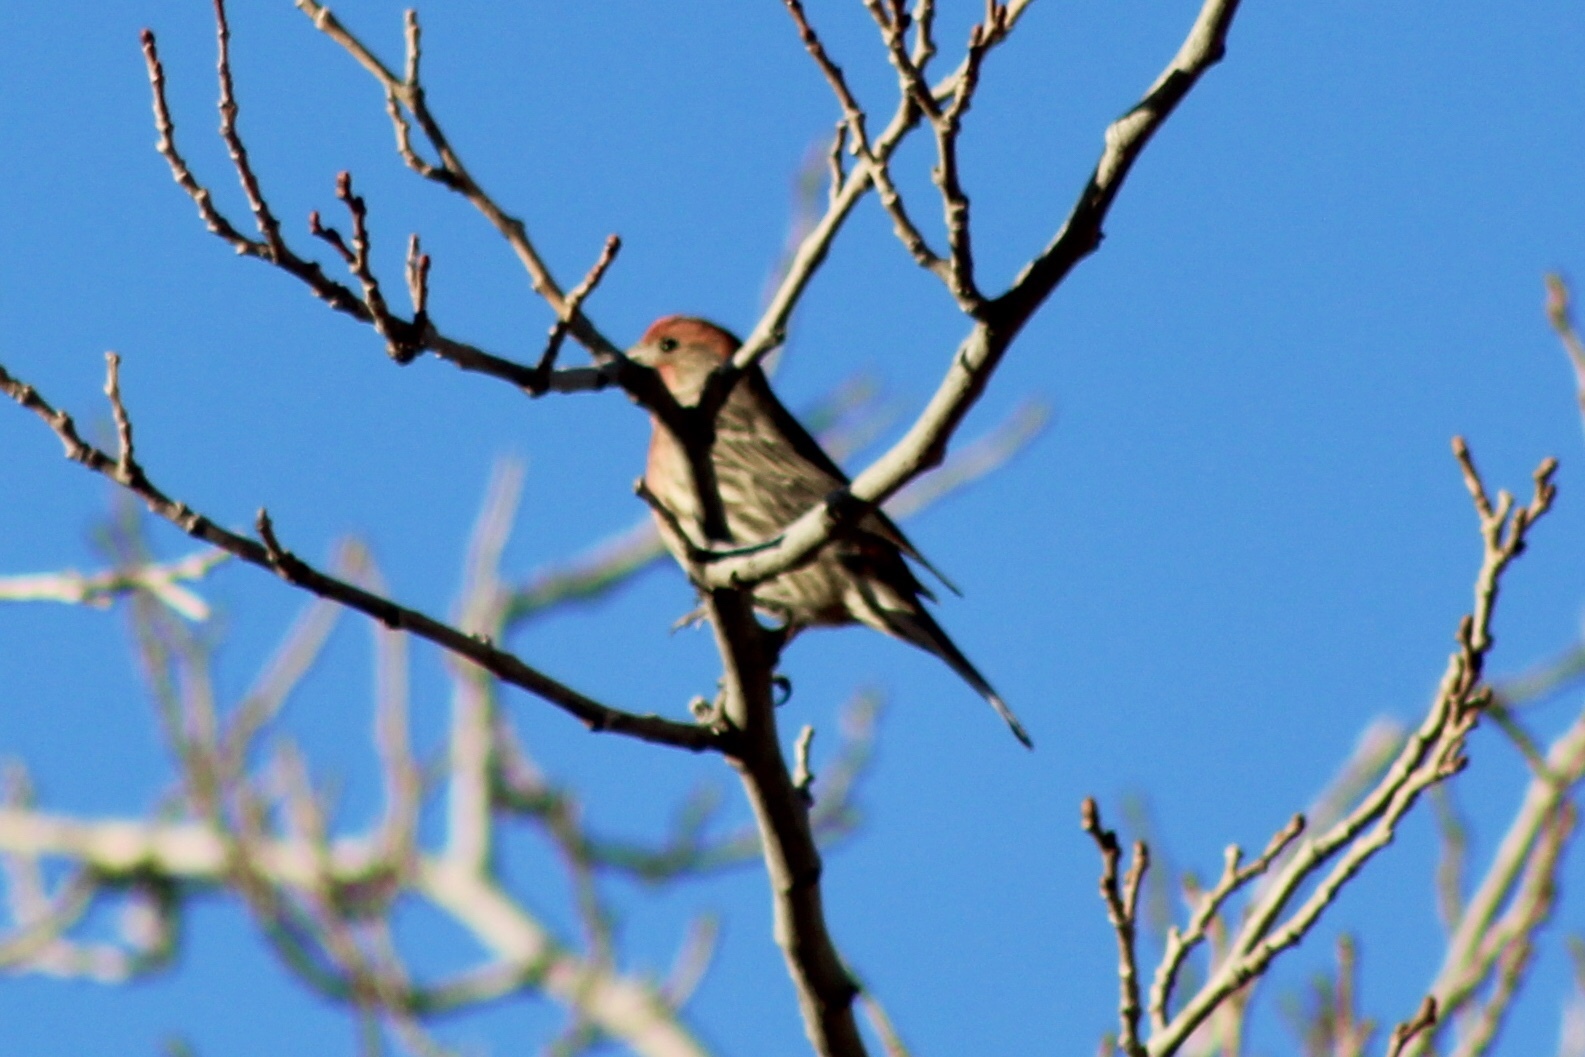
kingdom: Animalia
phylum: Chordata
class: Aves
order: Passeriformes
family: Fringillidae
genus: Haemorhous
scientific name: Haemorhous mexicanus
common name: House finch
